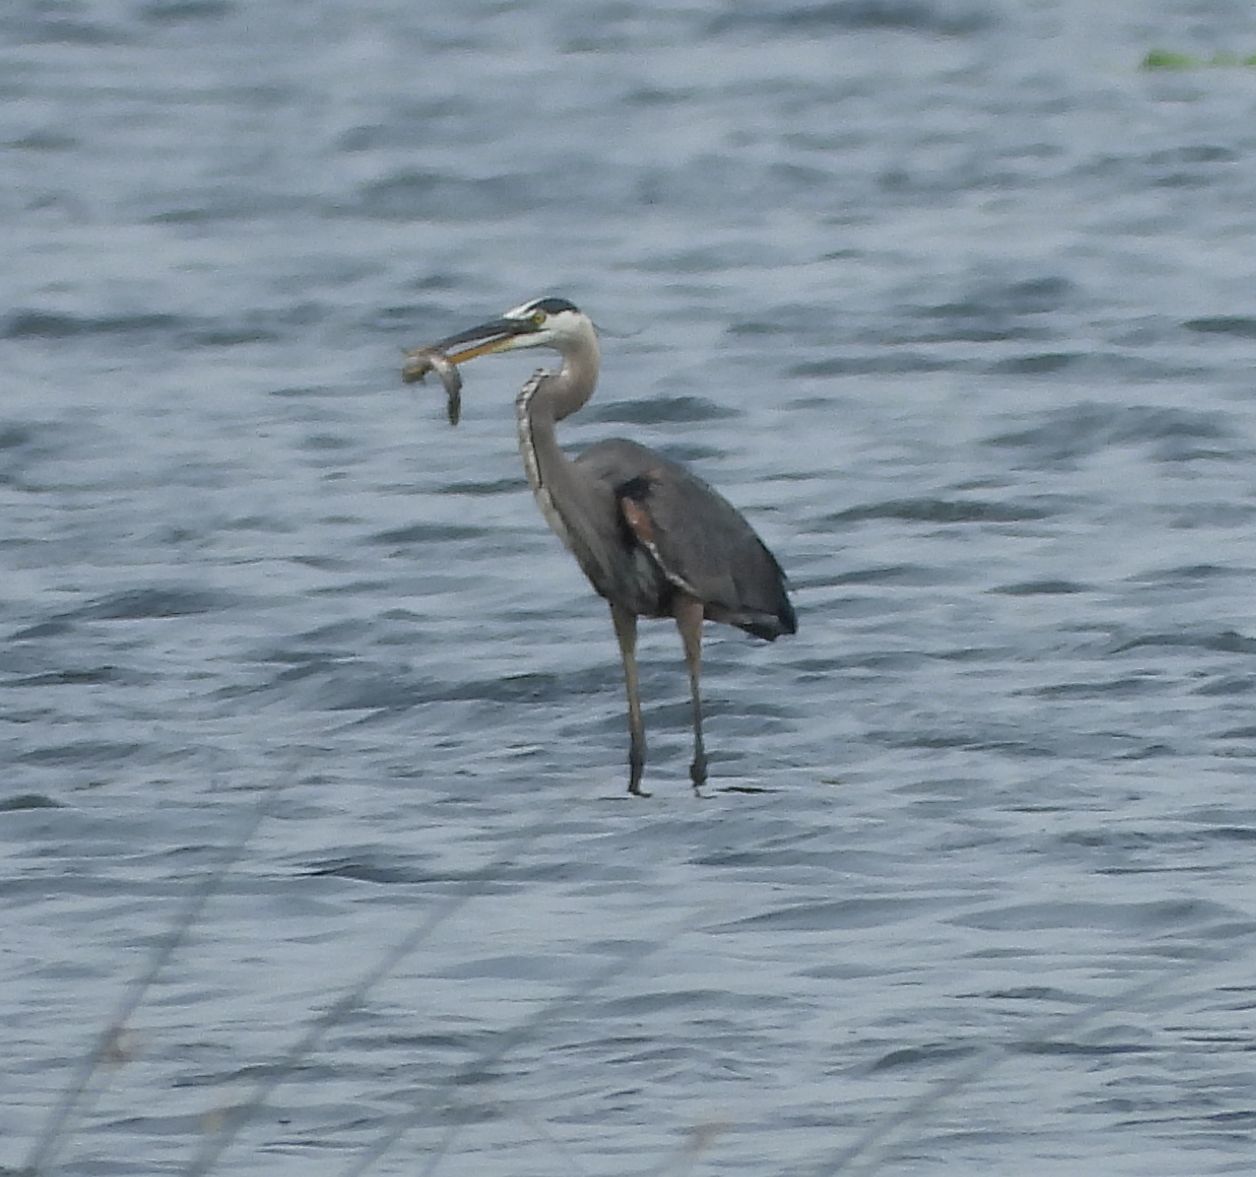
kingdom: Animalia
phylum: Chordata
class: Aves
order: Pelecaniformes
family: Ardeidae
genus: Ardea
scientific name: Ardea herodias
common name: Great blue heron
